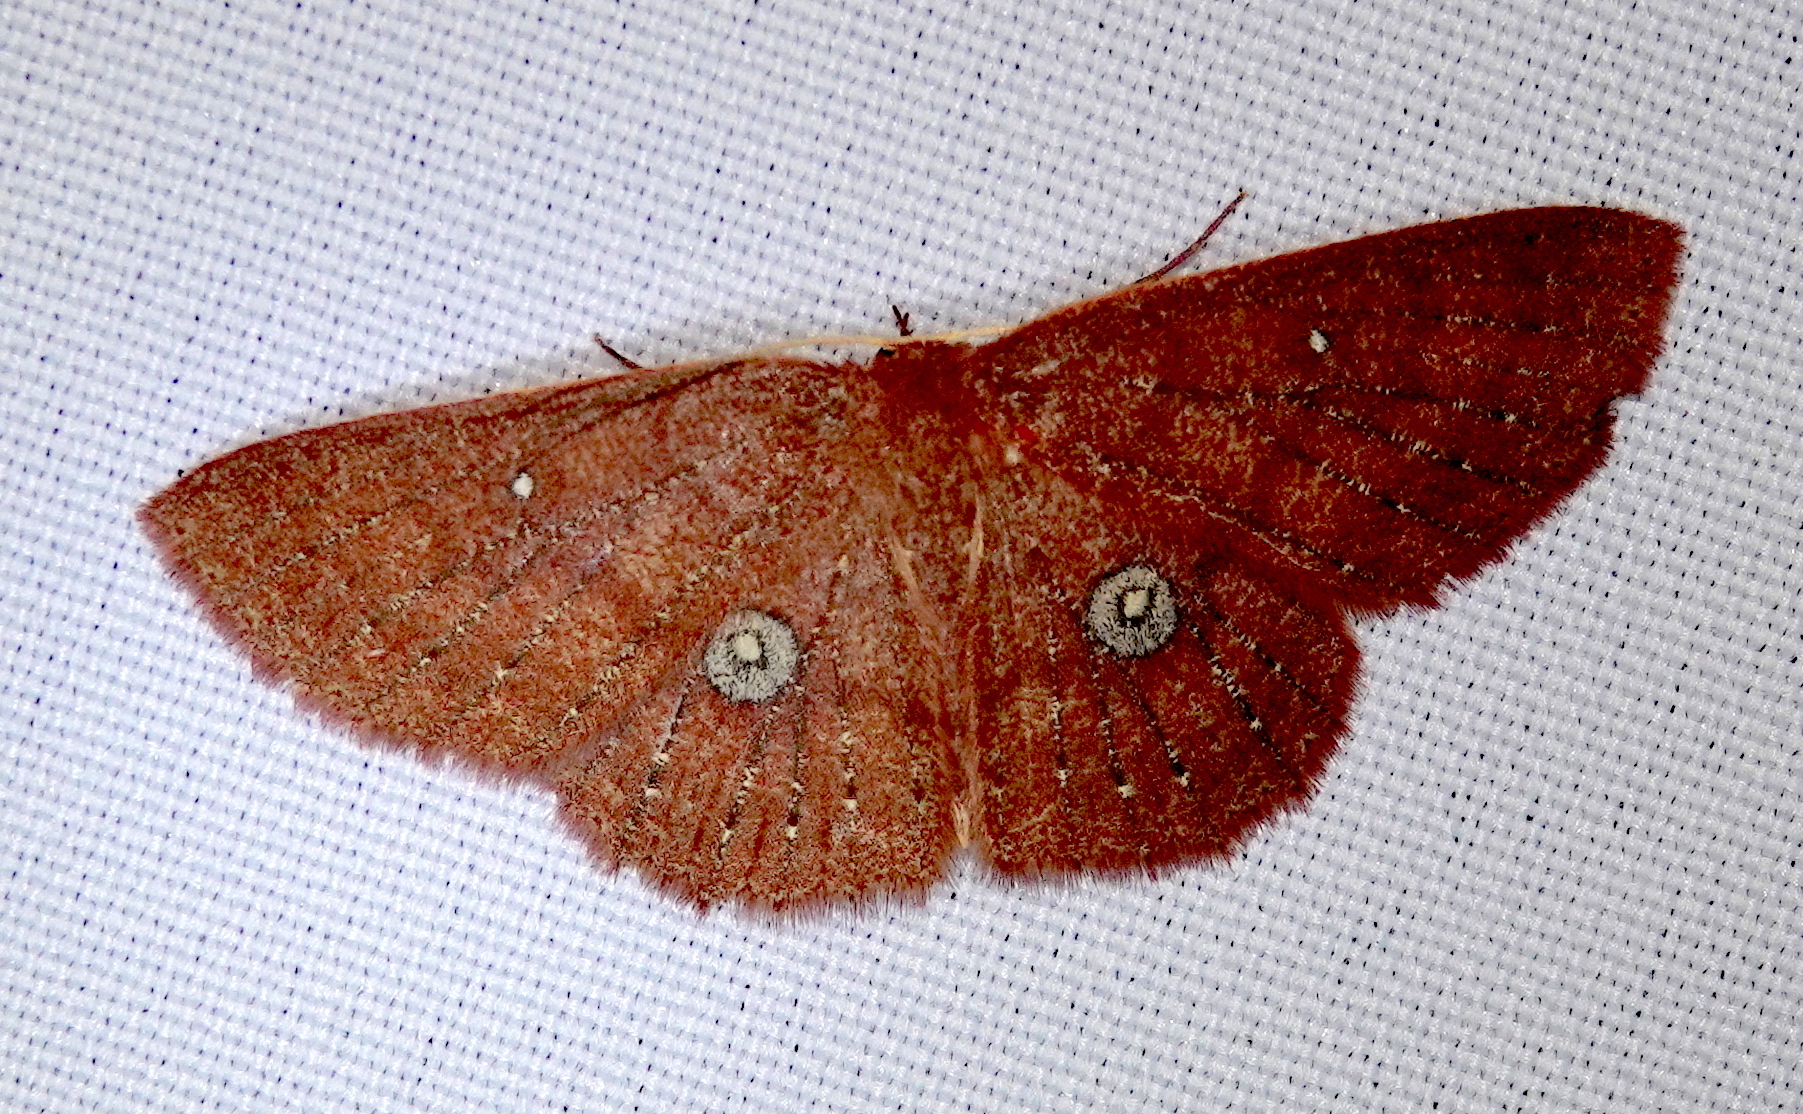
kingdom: Animalia
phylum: Arthropoda
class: Insecta
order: Lepidoptera
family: Geometridae
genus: Cyclophora
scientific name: Cyclophora
